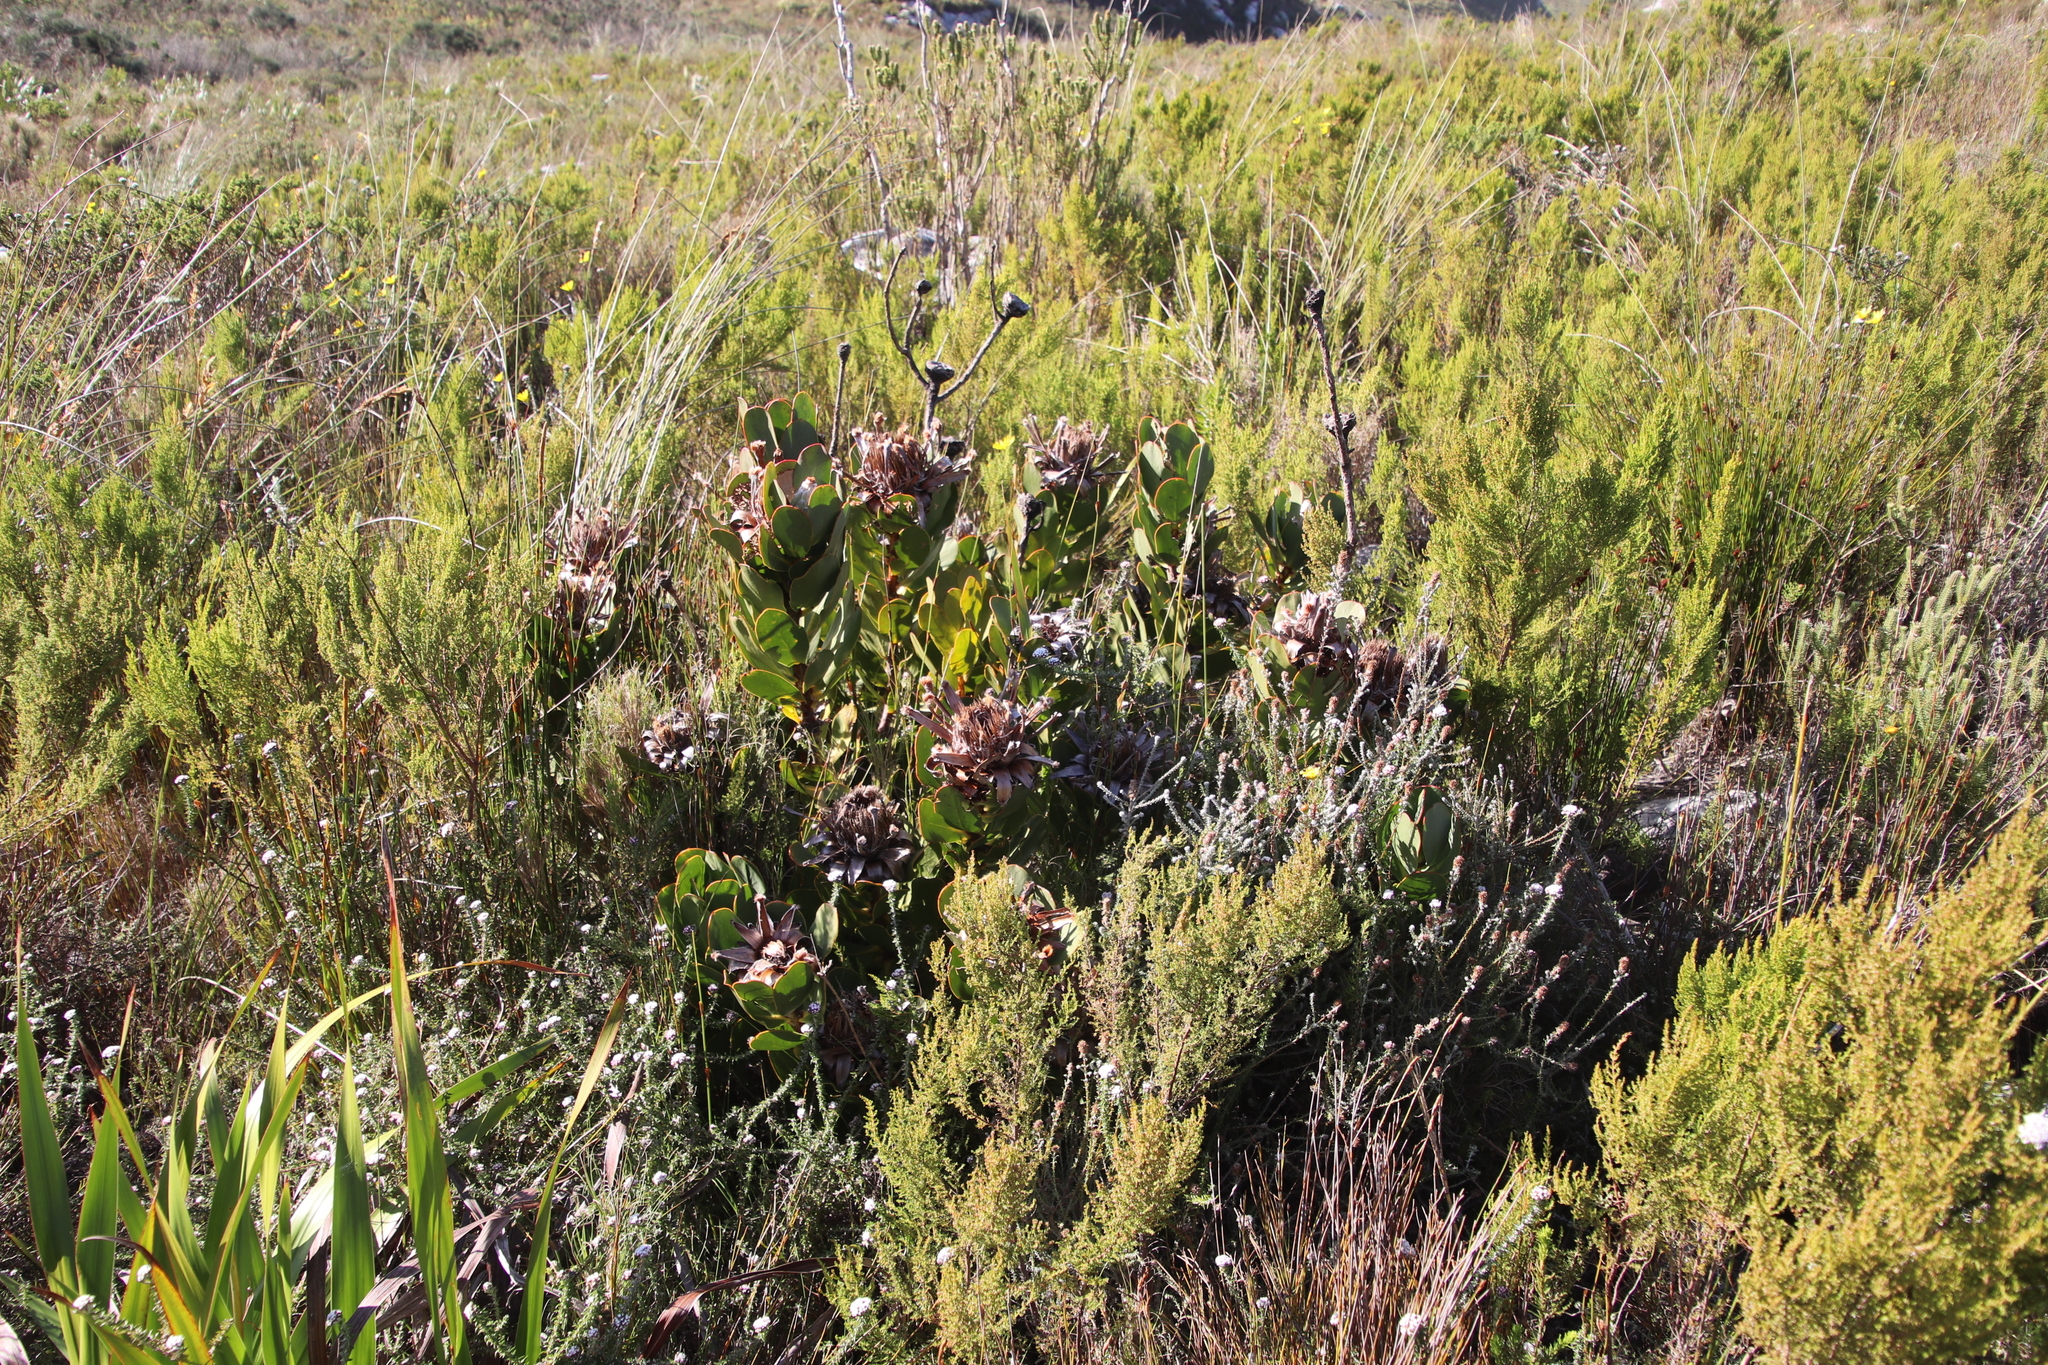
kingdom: Plantae
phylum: Tracheophyta
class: Magnoliopsida
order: Proteales
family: Proteaceae
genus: Protea
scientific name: Protea speciosa
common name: Brown-beard sugarbush
